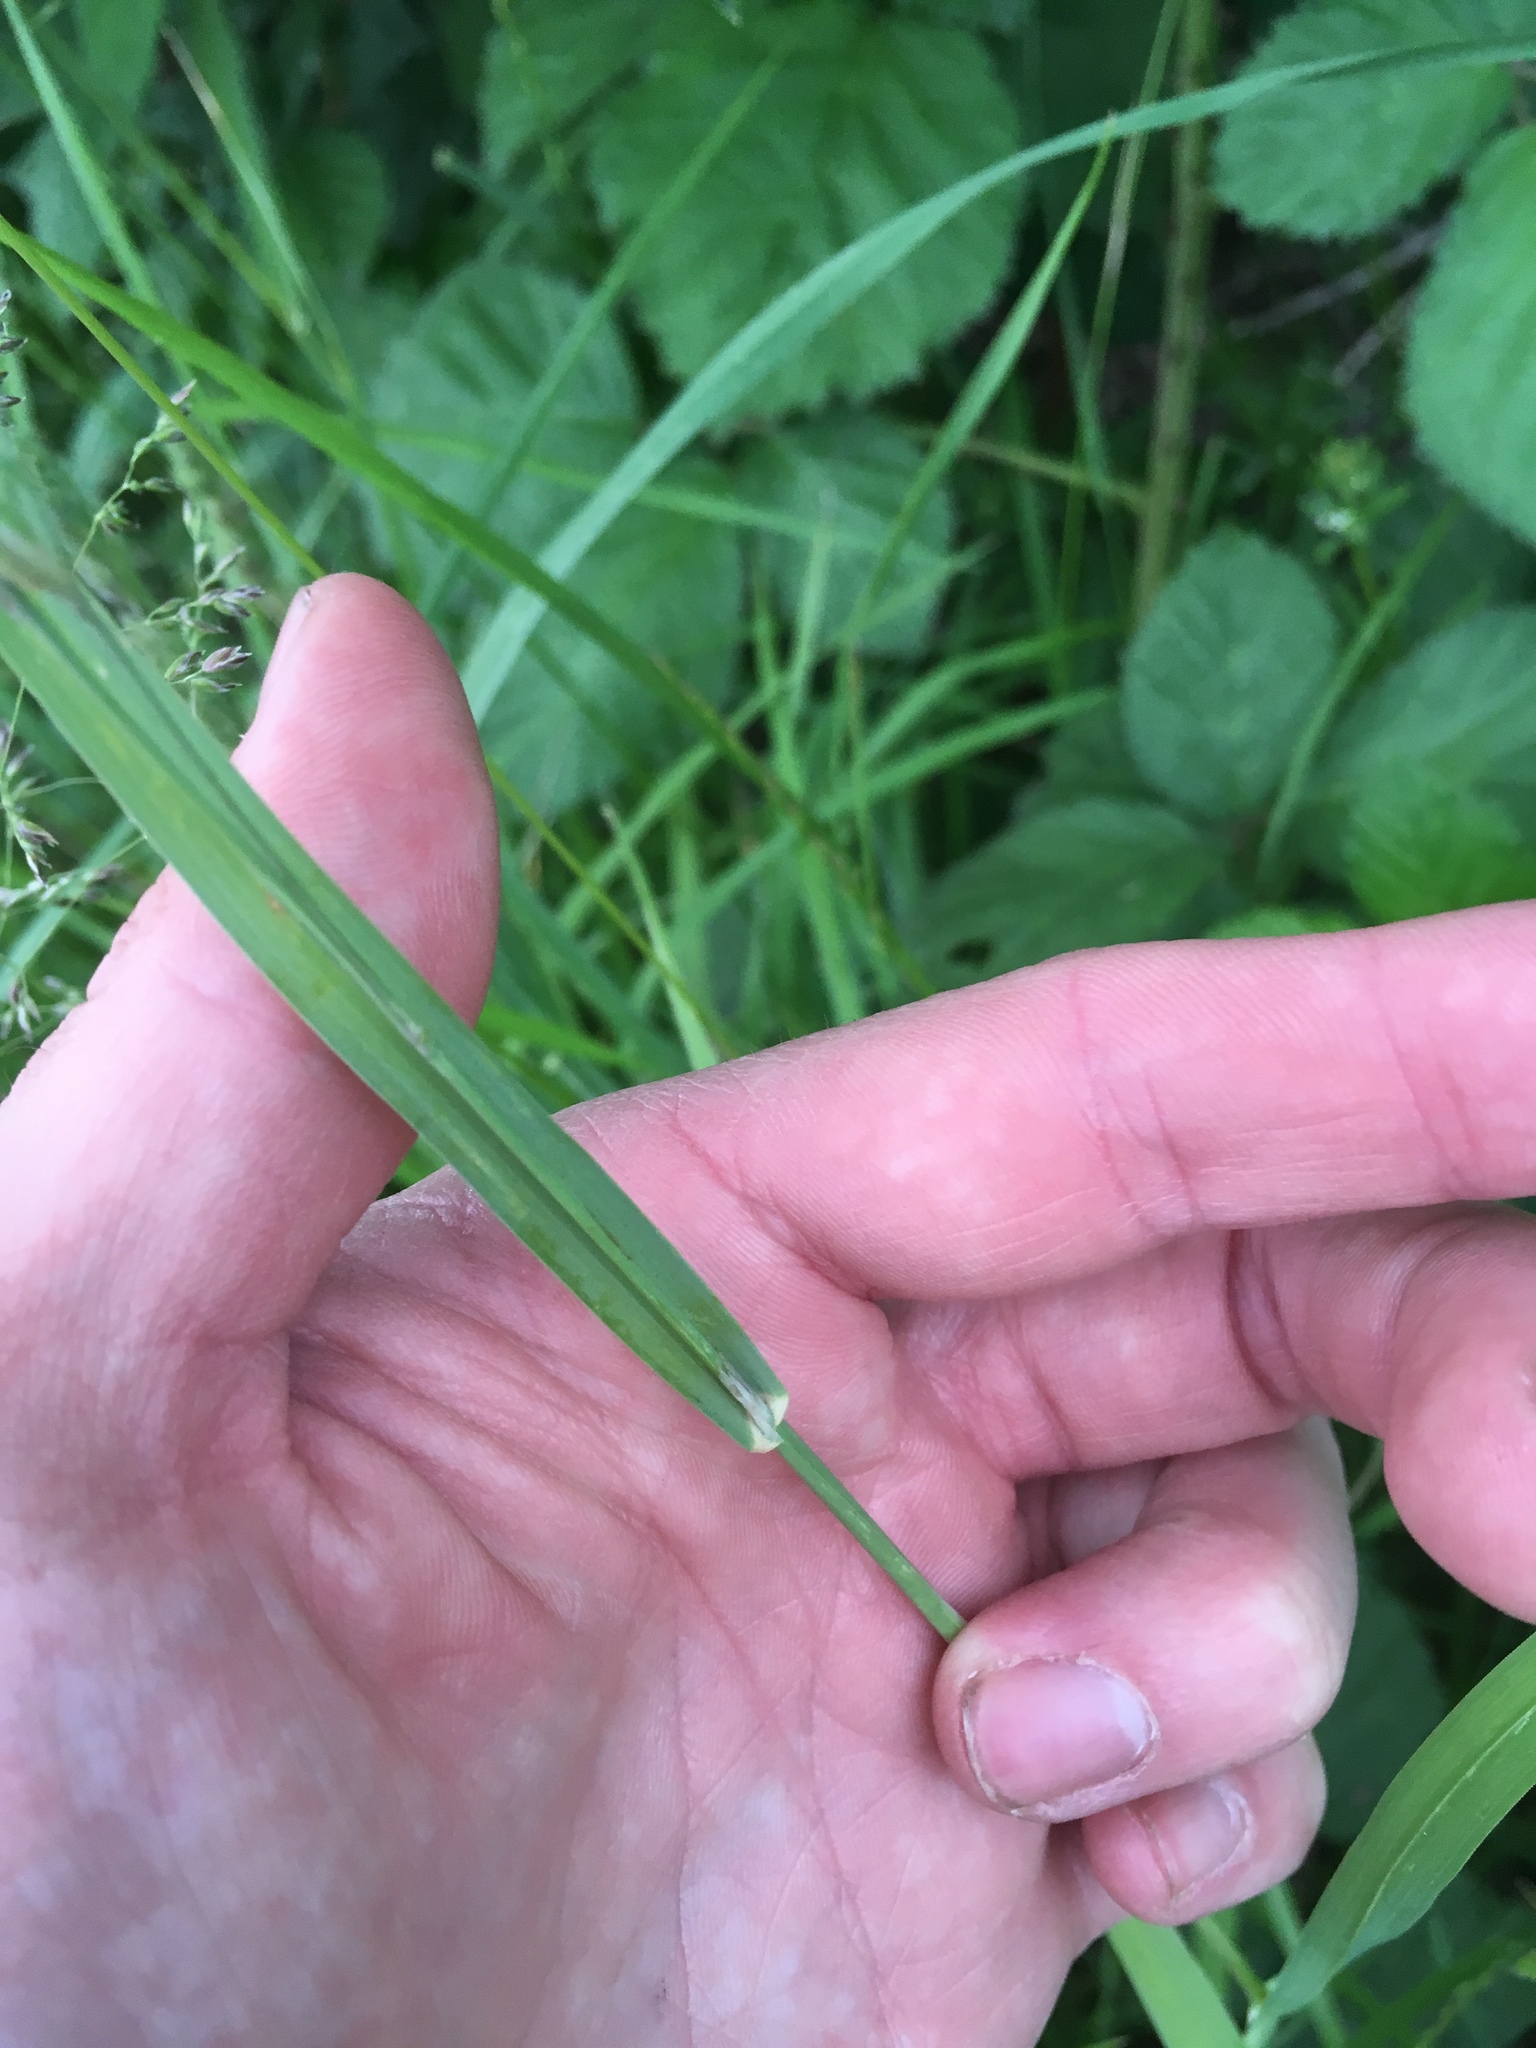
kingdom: Plantae
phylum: Tracheophyta
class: Liliopsida
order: Poales
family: Poaceae
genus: Dactylis
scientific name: Dactylis glomerata
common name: Orchardgrass
